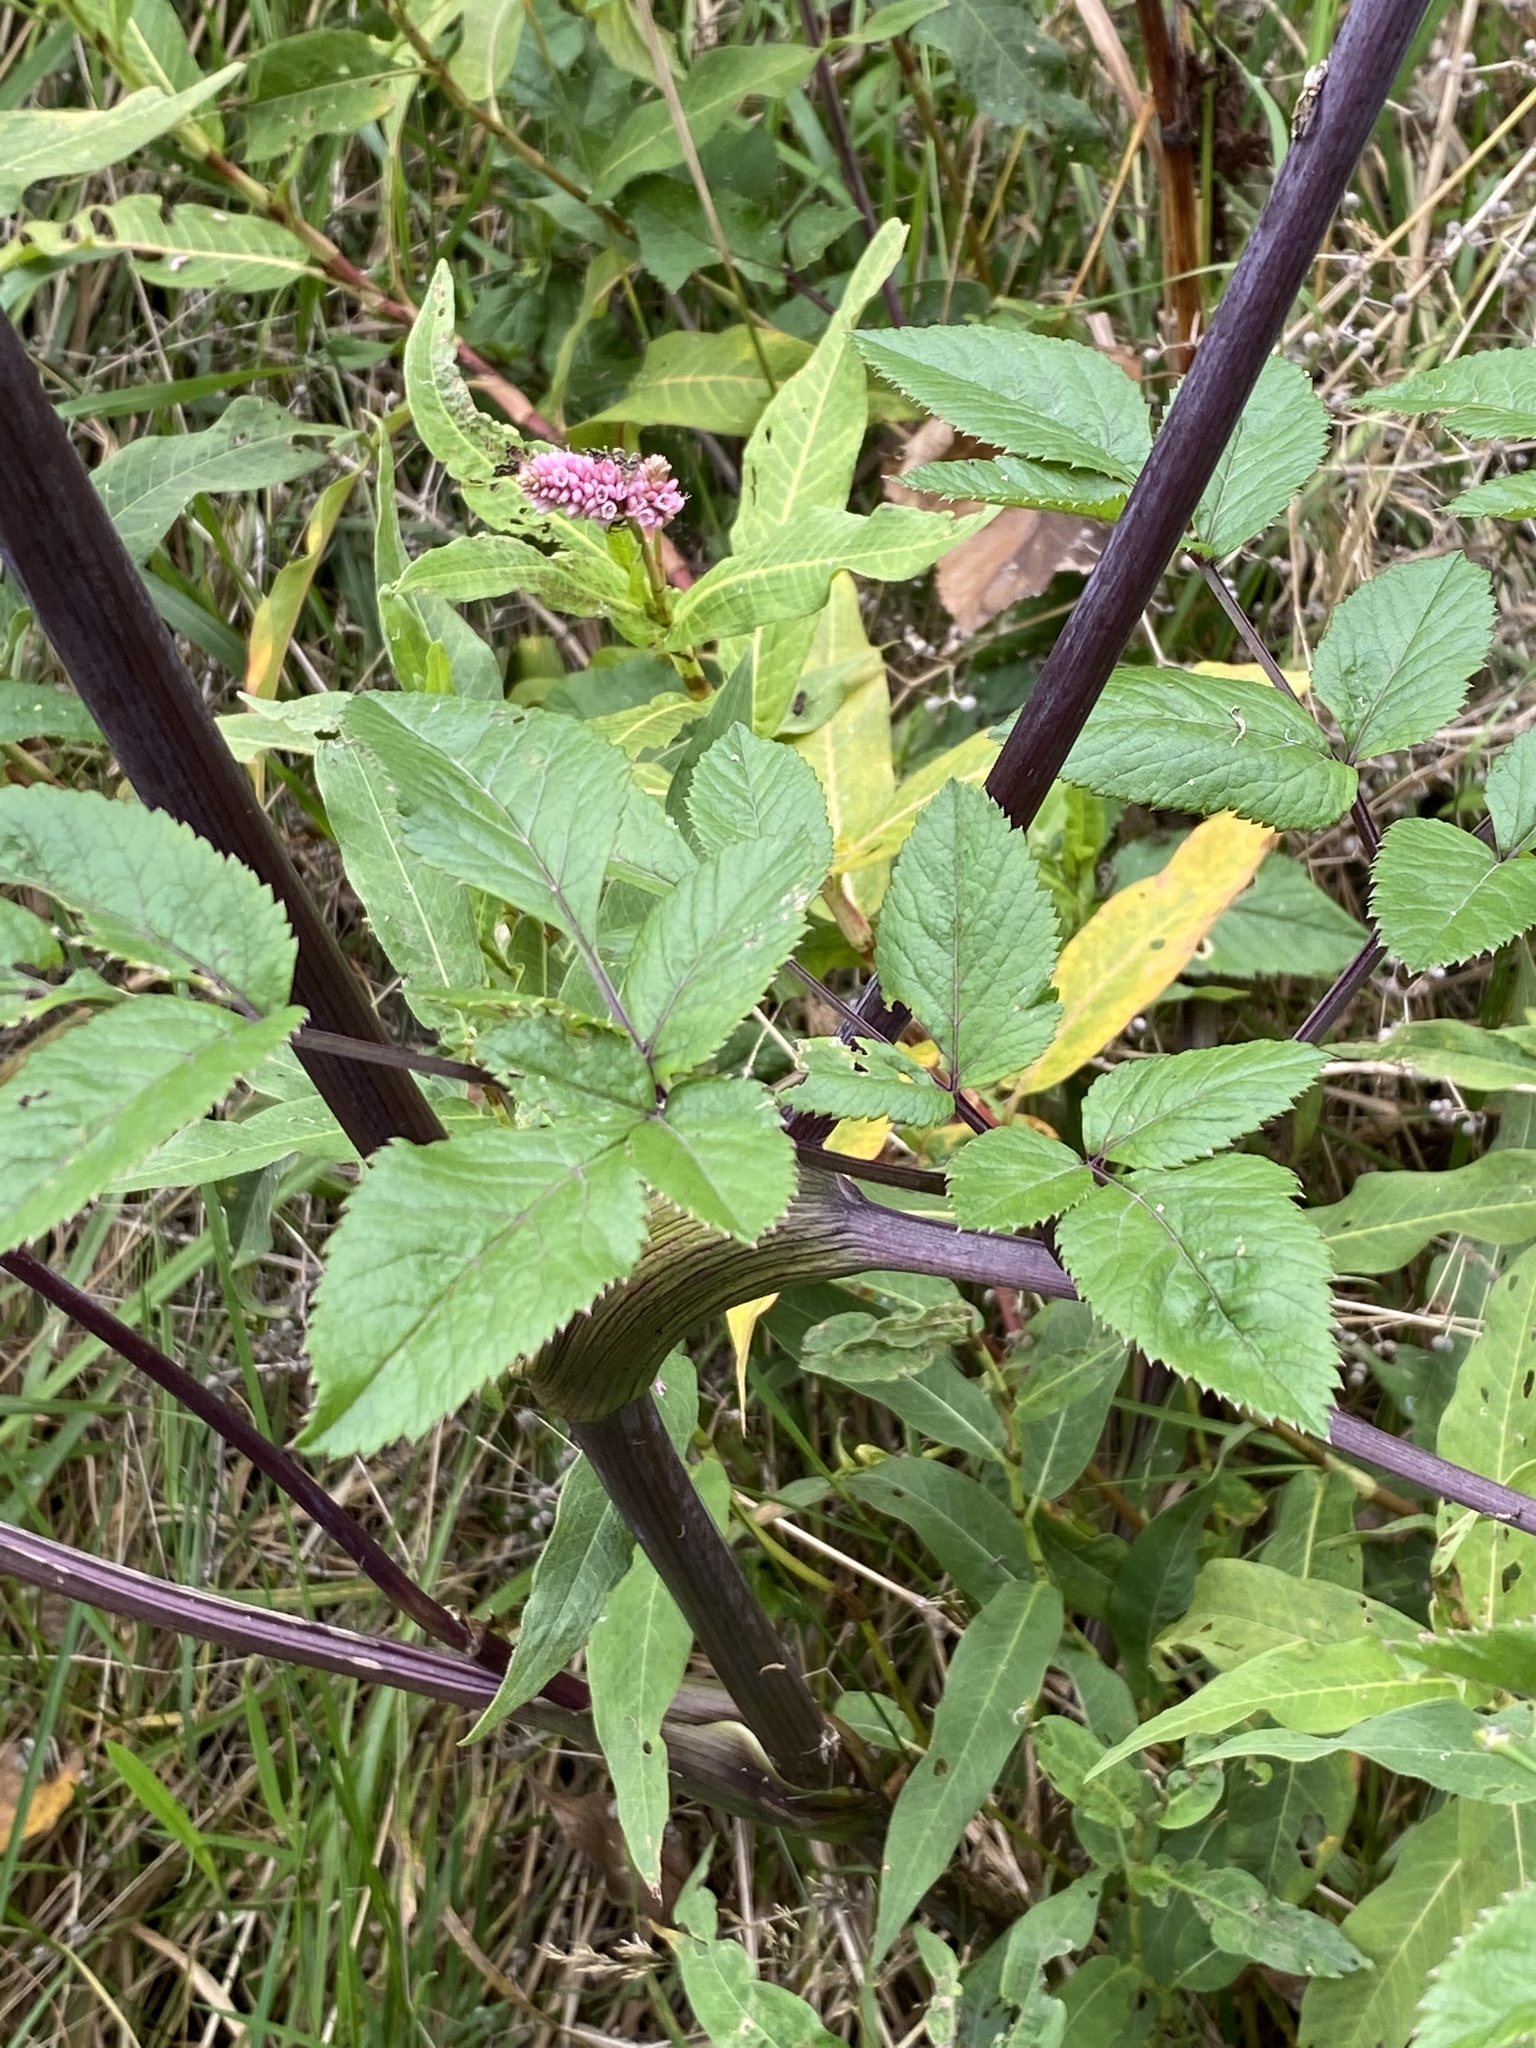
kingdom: Plantae
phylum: Tracheophyta
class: Magnoliopsida
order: Apiales
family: Apiaceae
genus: Angelica
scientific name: Angelica sylvestris
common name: Wild angelica
